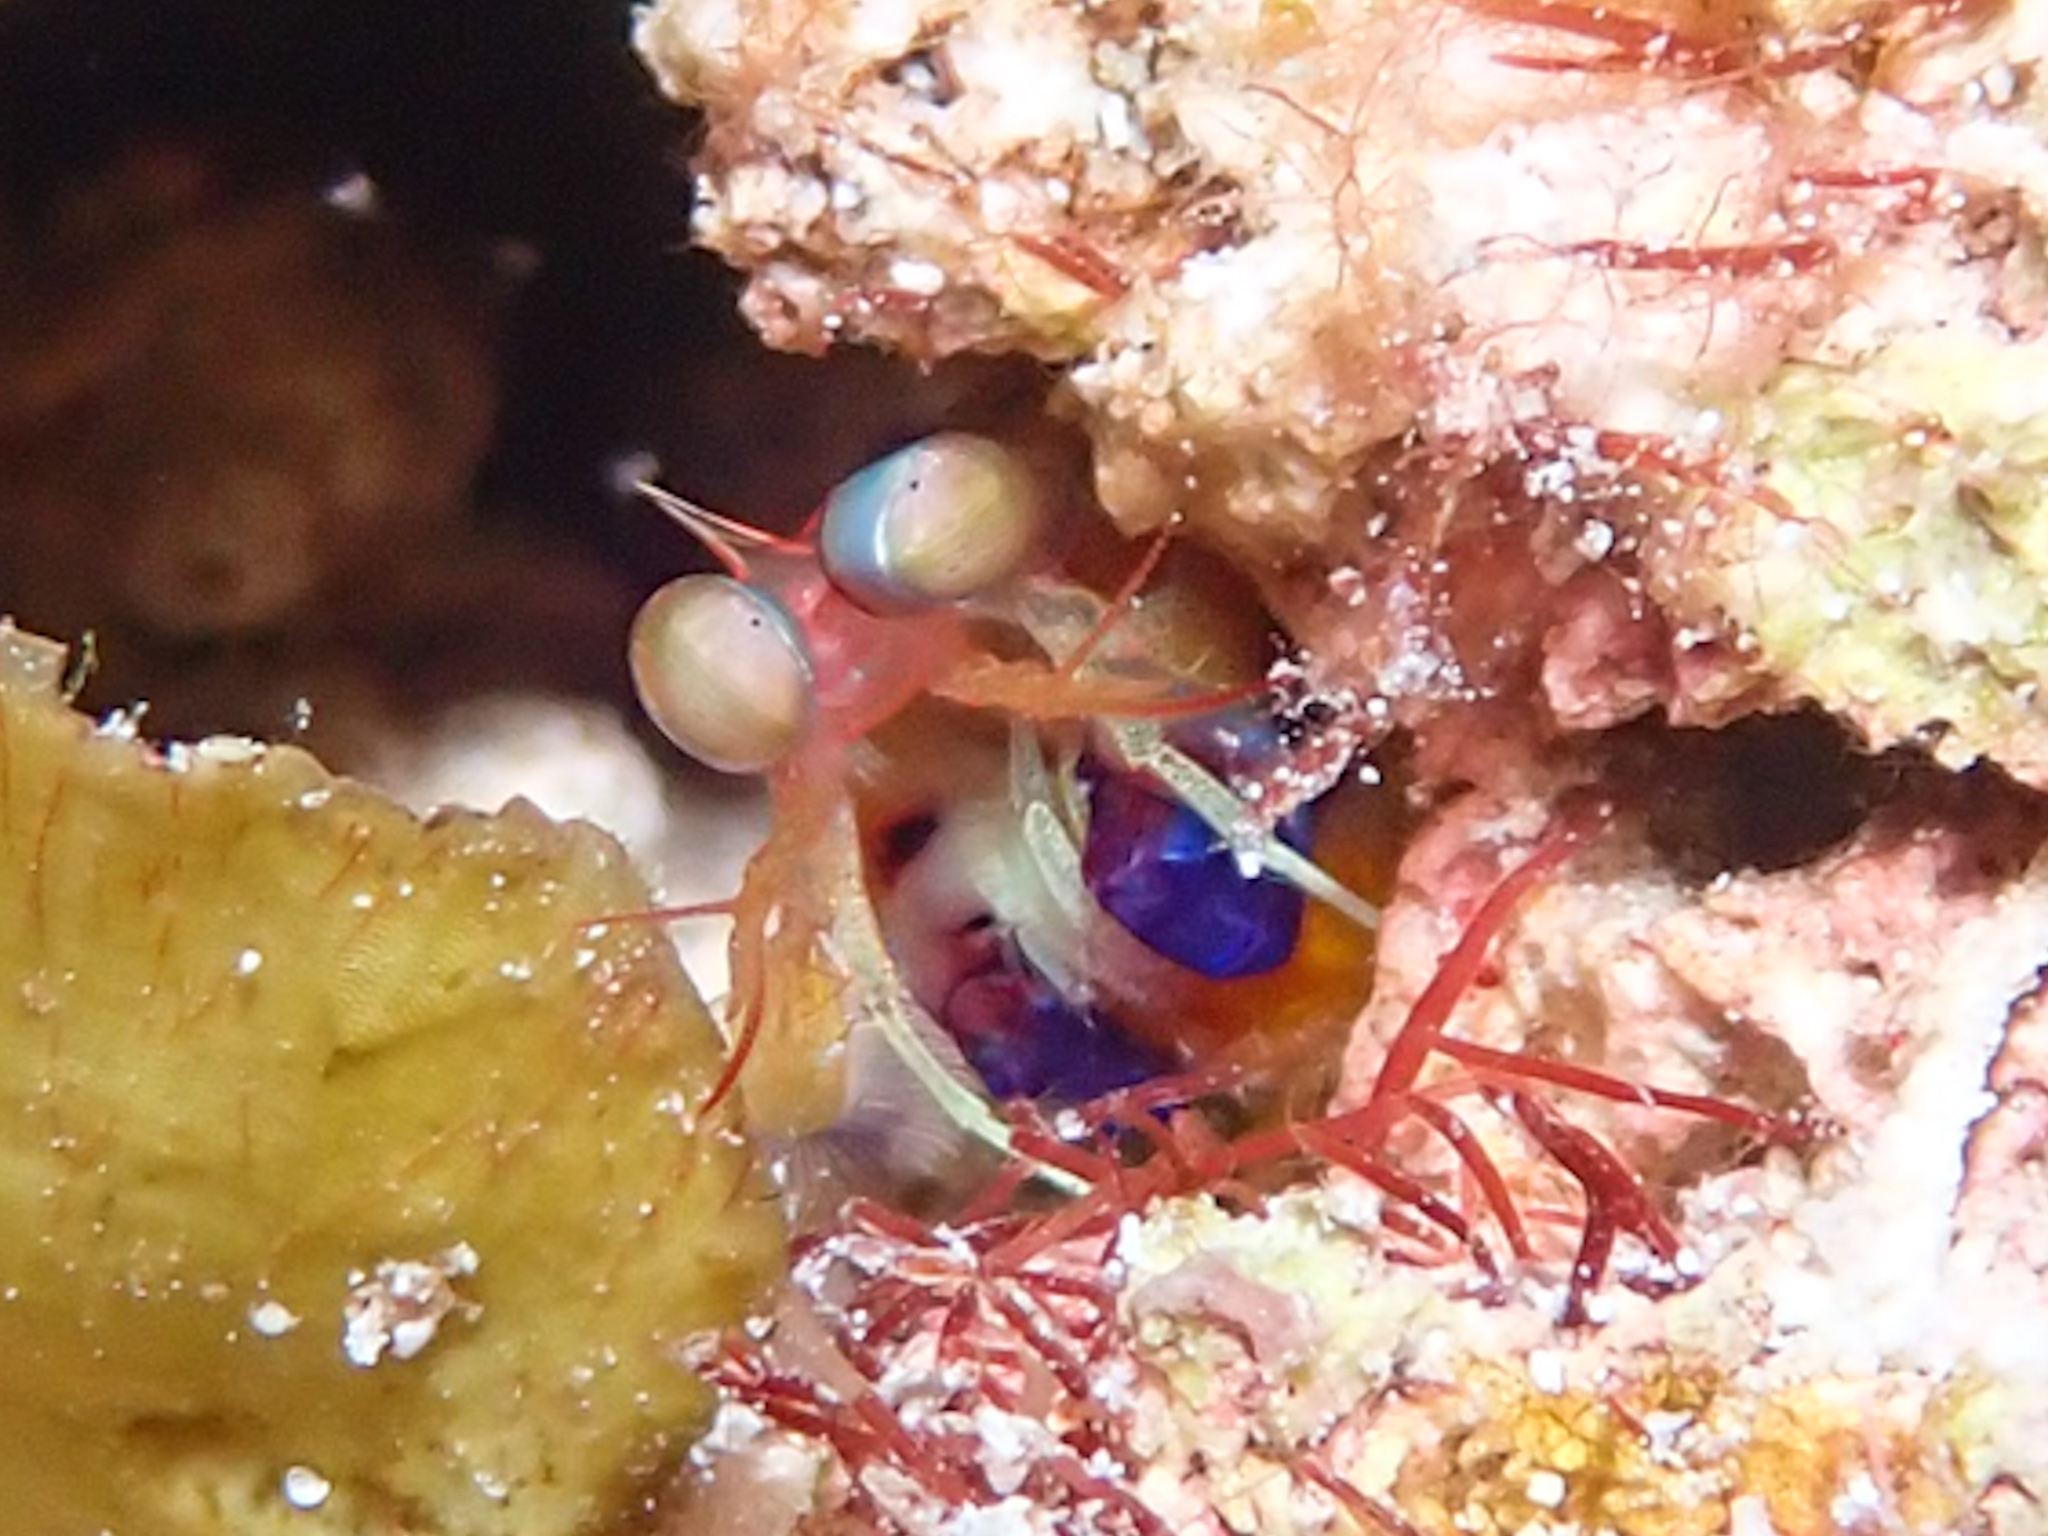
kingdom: Animalia
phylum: Arthropoda
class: Malacostraca
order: Stomatopoda
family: Gonodactylidae
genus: Neogonodactylus
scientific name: Neogonodactylus curacaoensis
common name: Dark mantis
